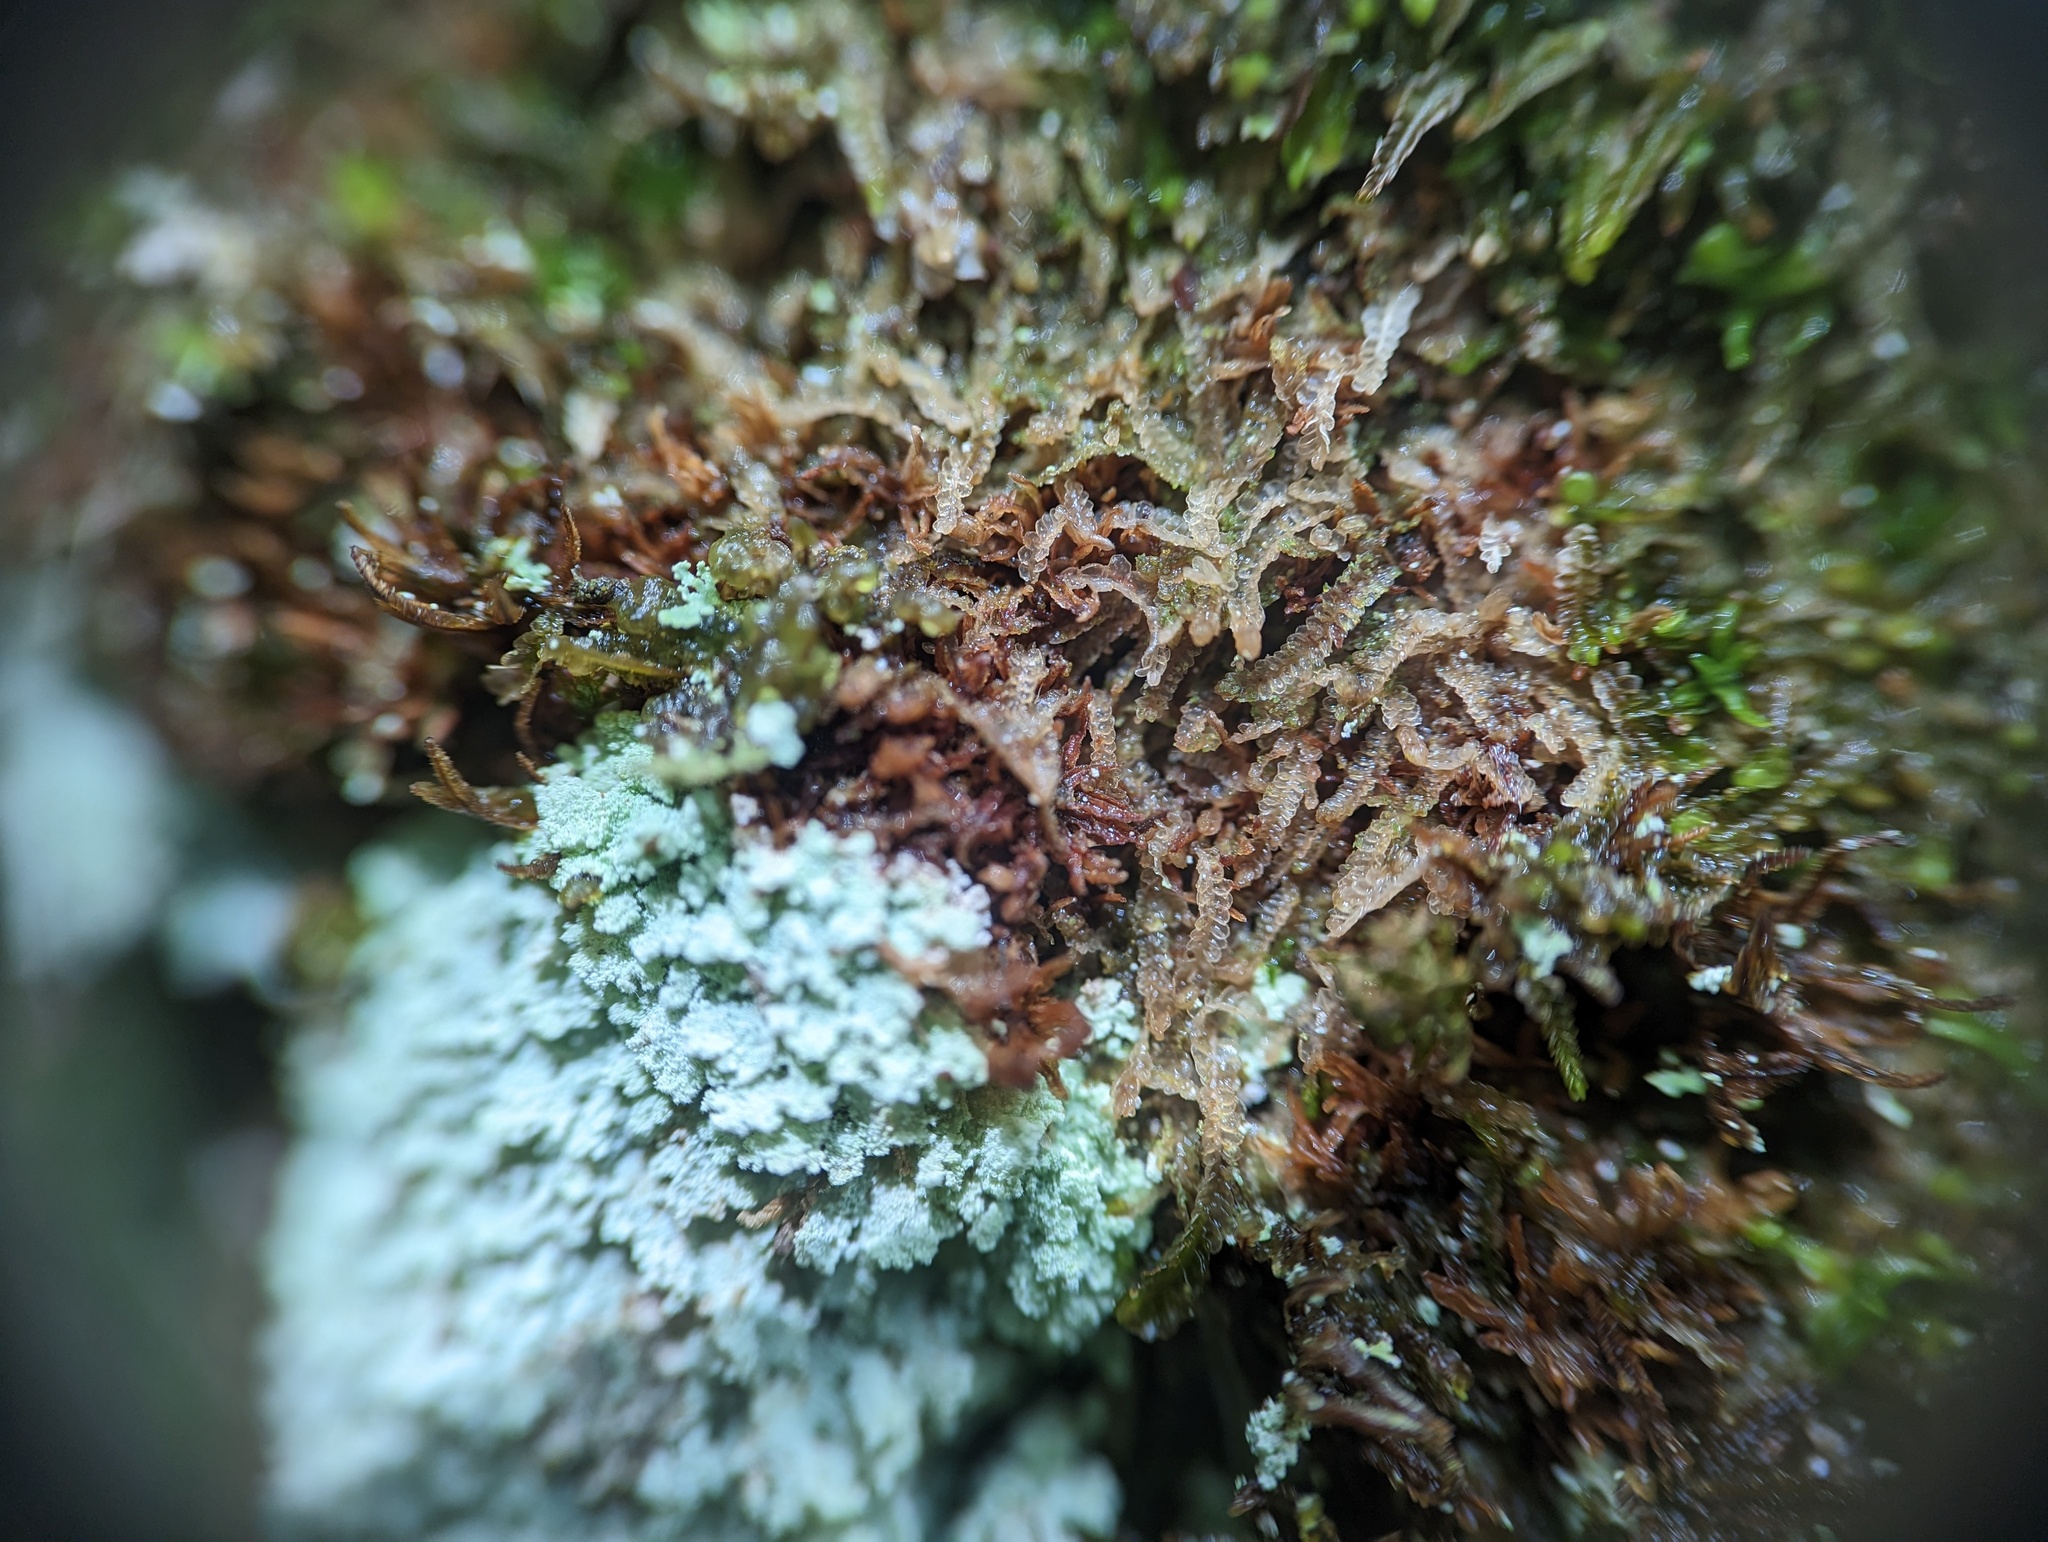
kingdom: Plantae
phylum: Marchantiophyta
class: Jungermanniopsida
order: Jungermanniales
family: Cephaloziaceae
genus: Odontoschisma
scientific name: Odontoschisma denudatum
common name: Matchstick flapwort
